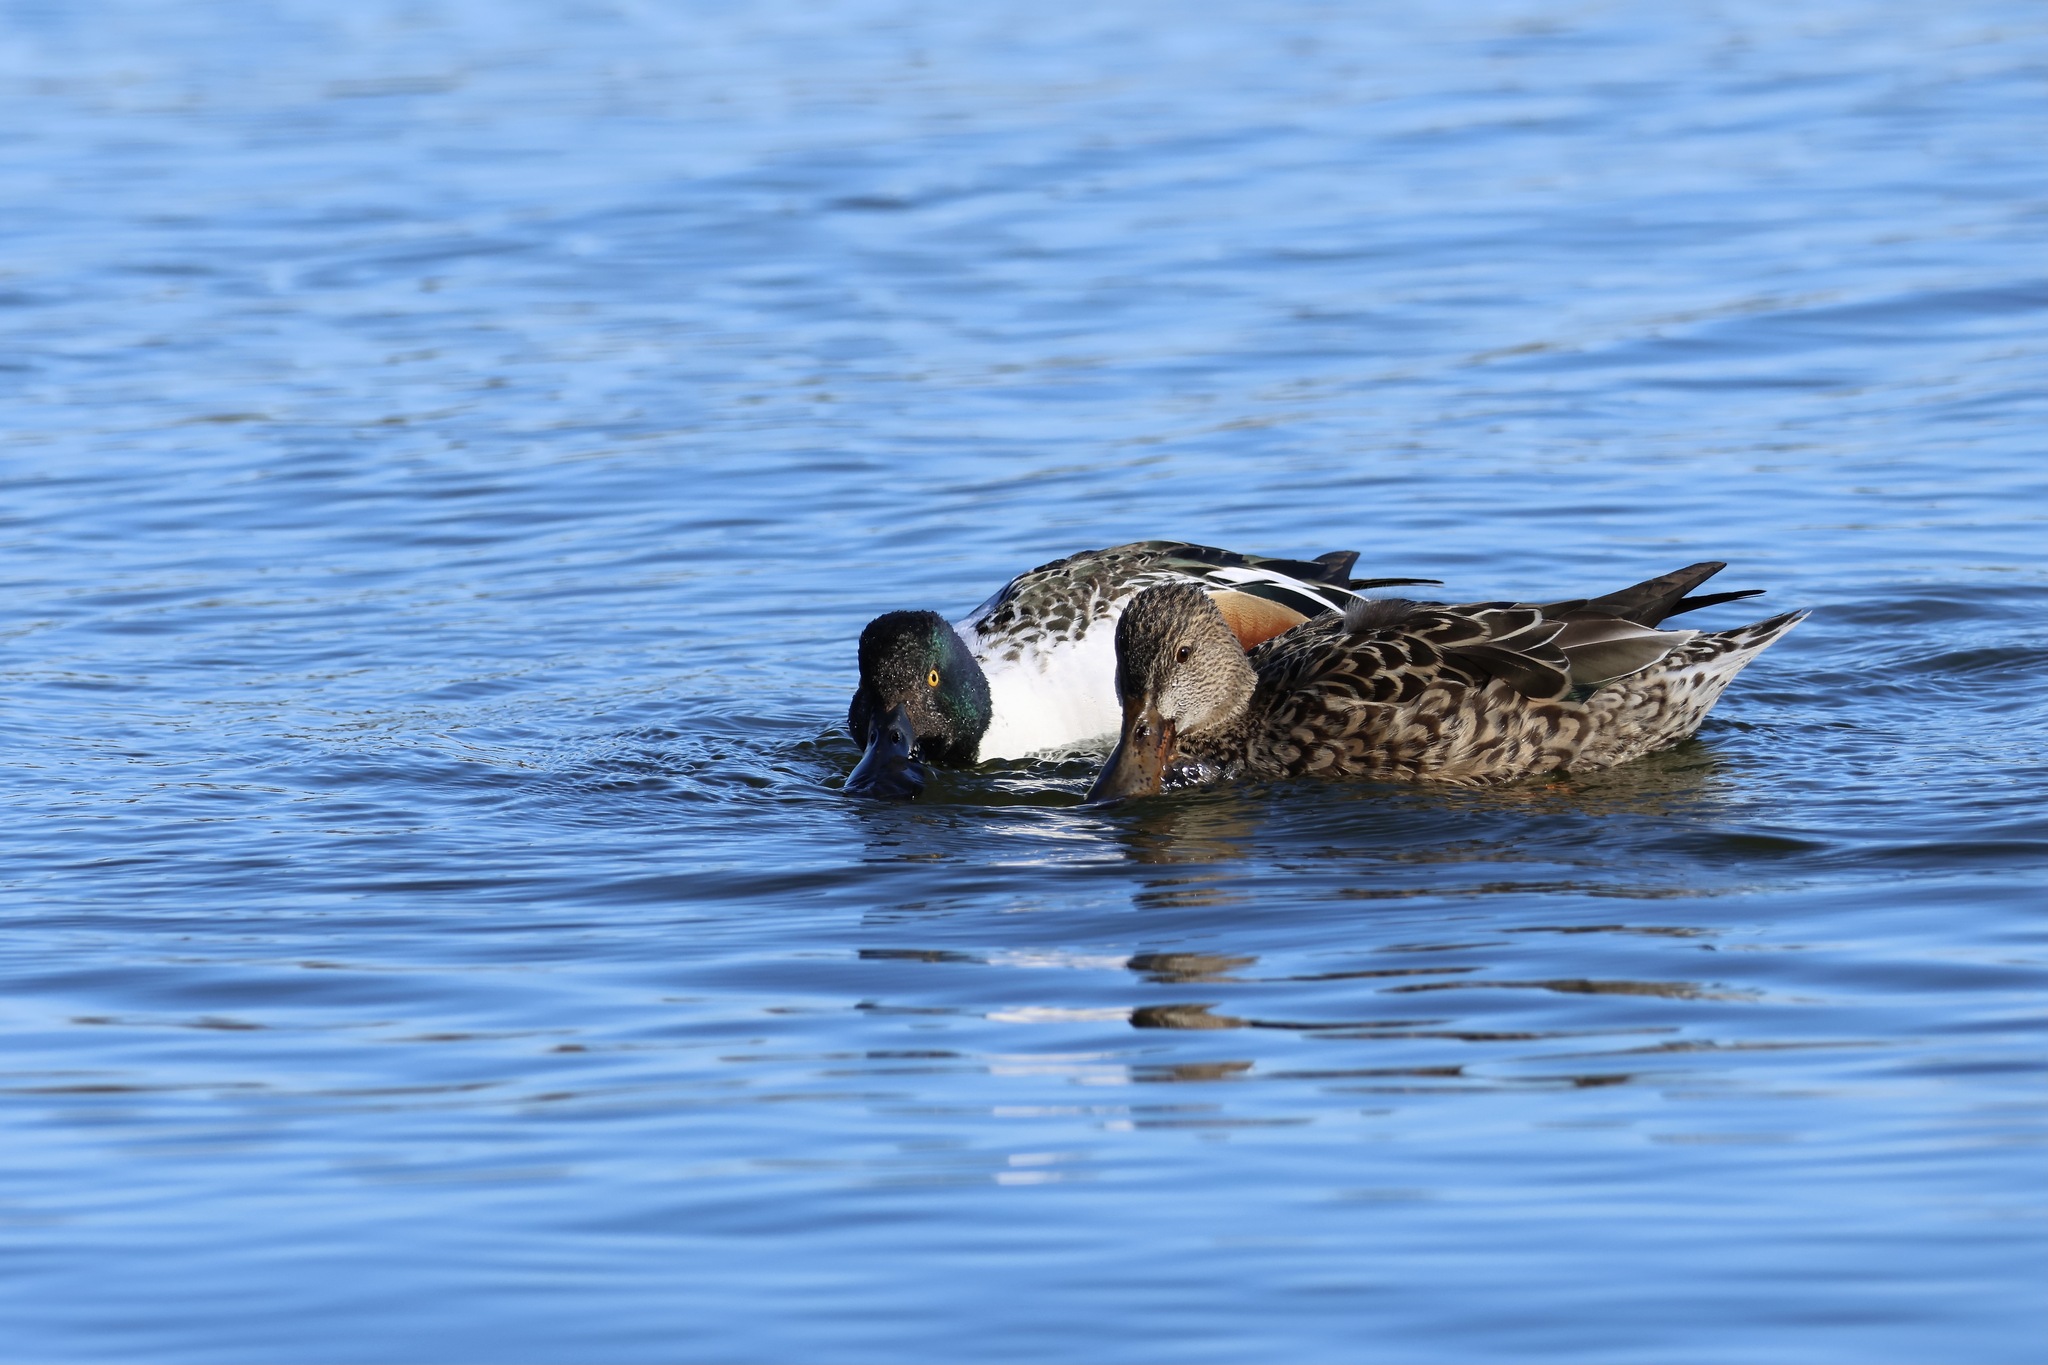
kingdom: Animalia
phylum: Chordata
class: Aves
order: Anseriformes
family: Anatidae
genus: Spatula
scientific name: Spatula clypeata
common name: Northern shoveler
